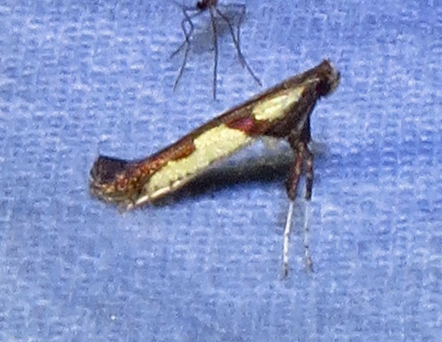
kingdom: Animalia
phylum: Arthropoda
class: Insecta
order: Lepidoptera
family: Gracillariidae
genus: Caloptilia
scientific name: Caloptilia blandella
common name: Walnut caloptilia moth
